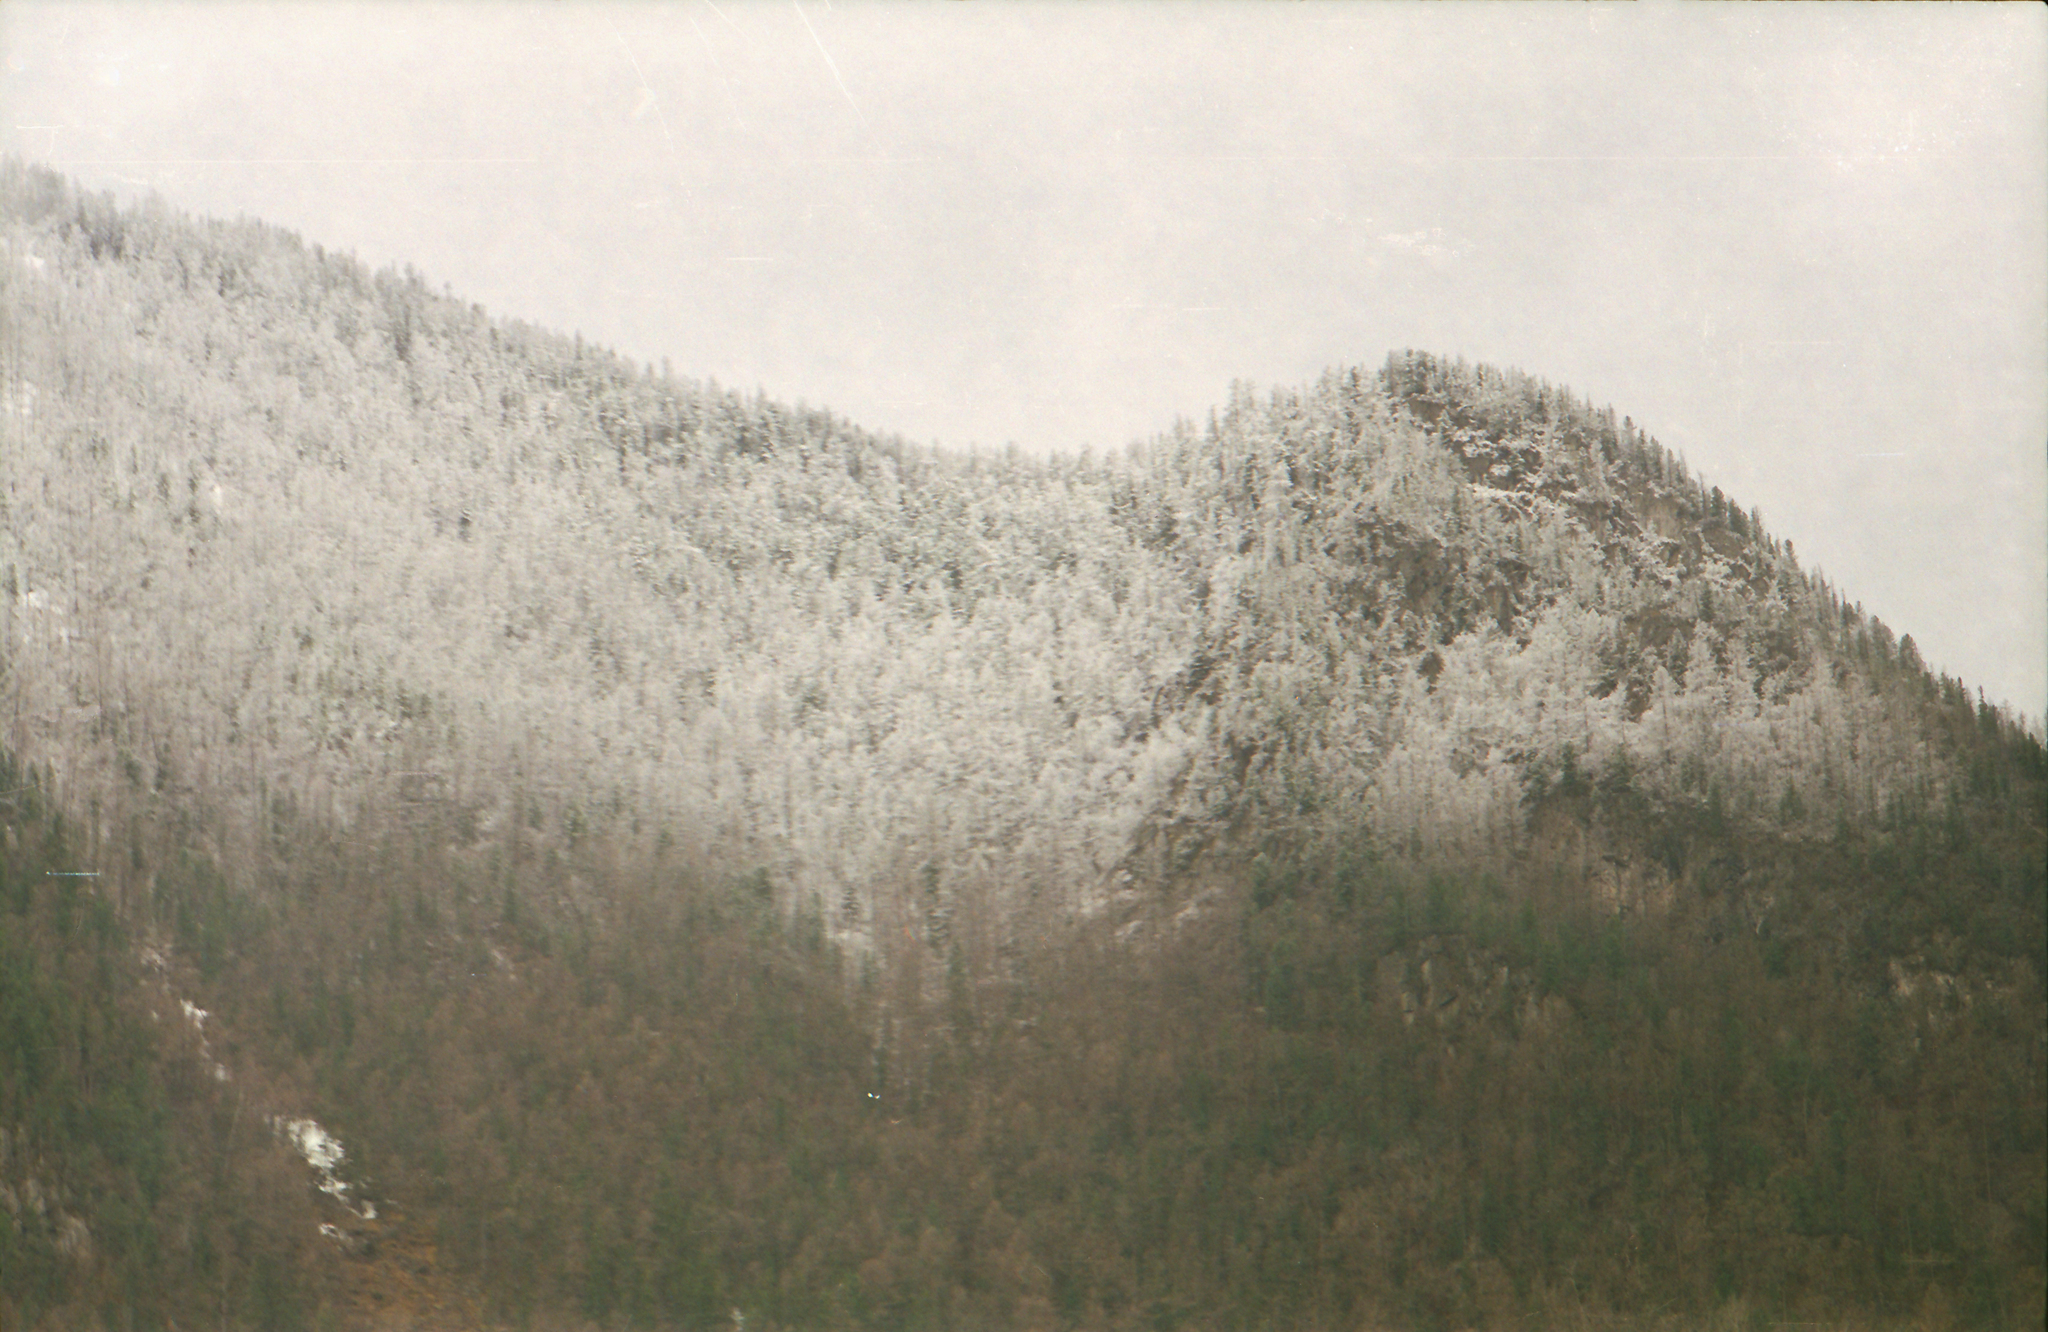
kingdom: Plantae
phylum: Tracheophyta
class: Pinopsida
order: Pinales
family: Pinaceae
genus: Picea
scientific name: Picea obovata
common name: Siberian spruce
